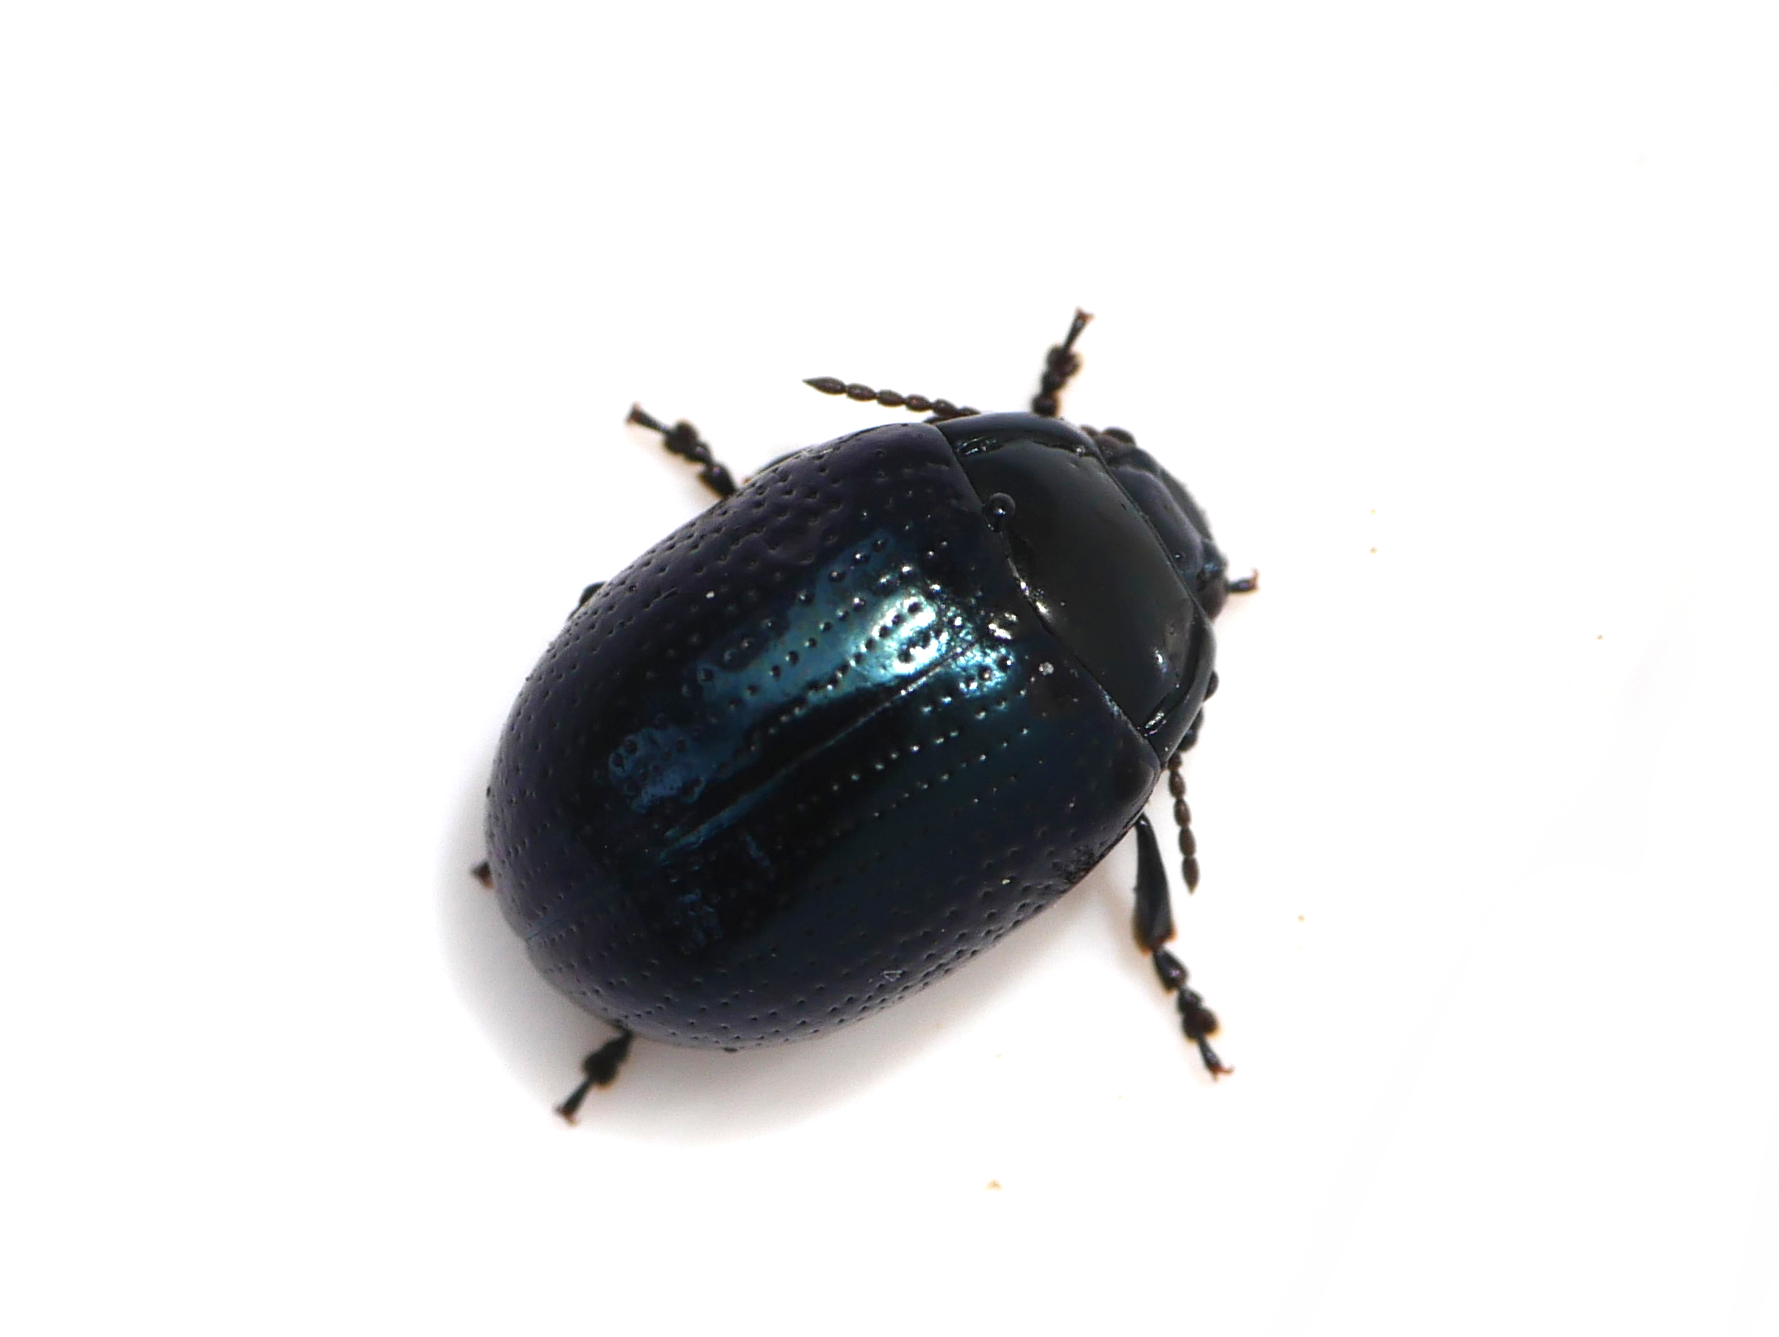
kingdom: Animalia
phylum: Arthropoda
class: Insecta
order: Coleoptera
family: Chrysomelidae
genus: Chrysolina
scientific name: Chrysolina oricalcia
